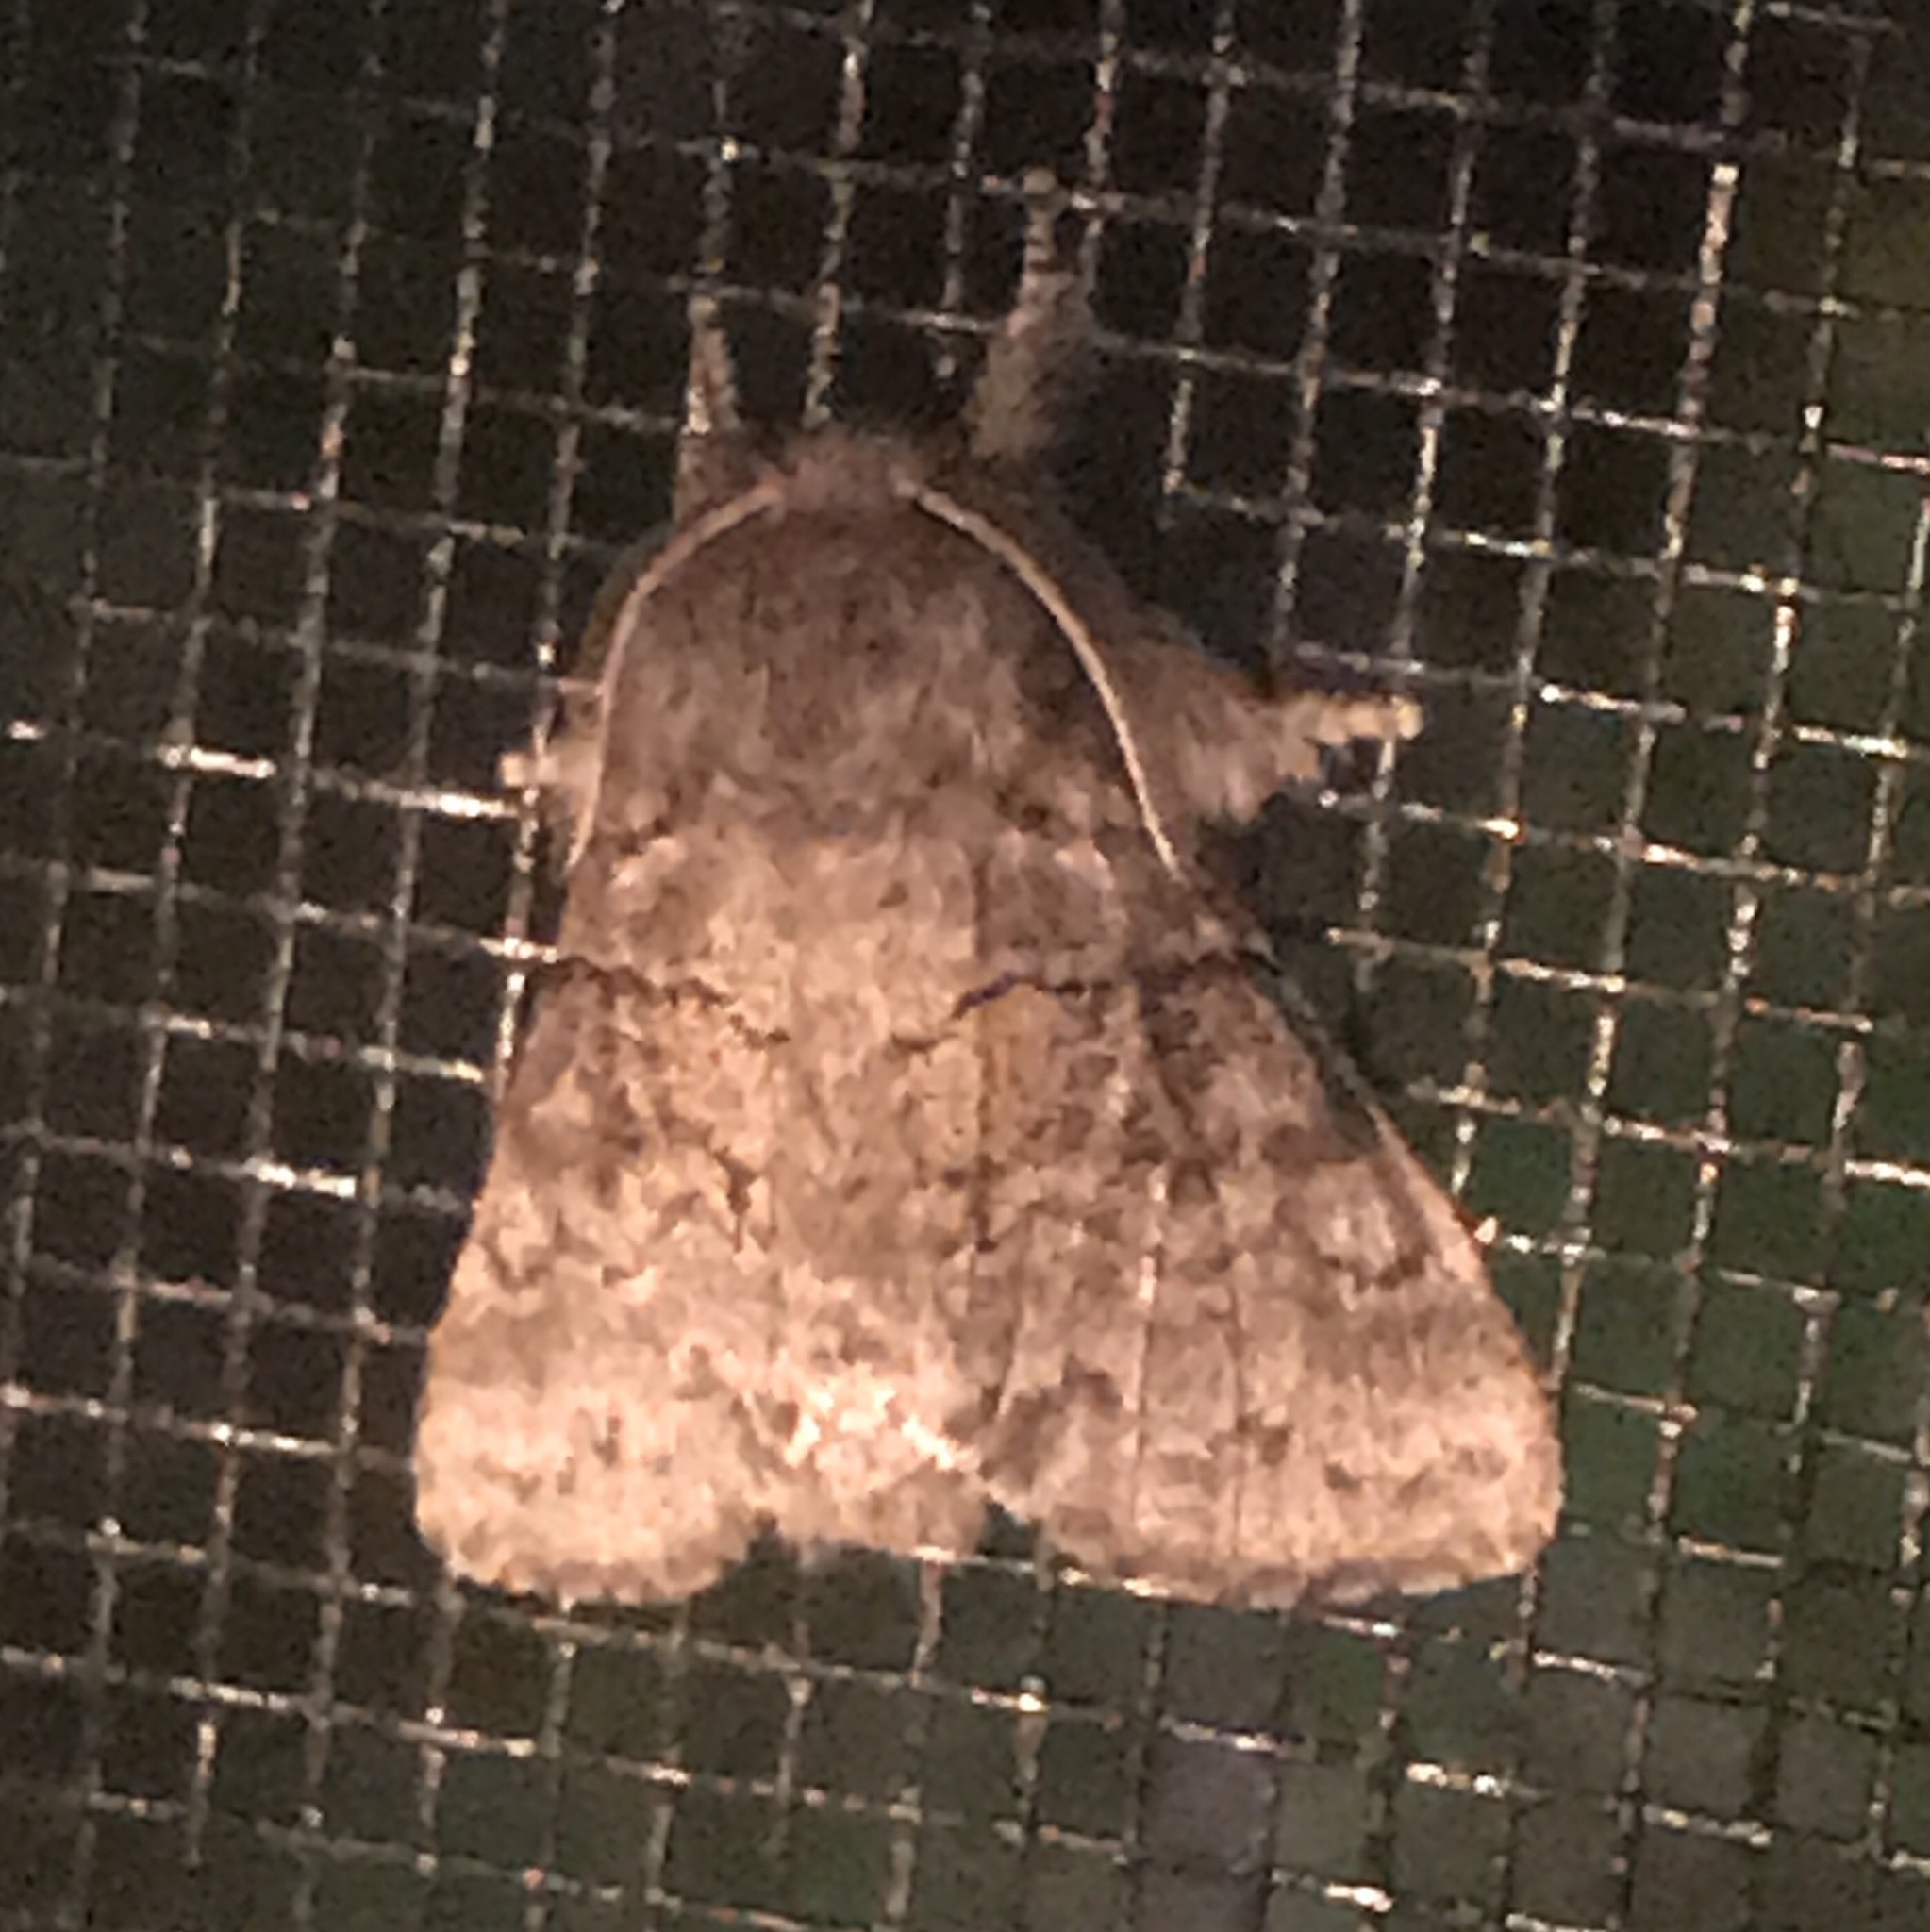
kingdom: Animalia
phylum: Arthropoda
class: Insecta
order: Lepidoptera
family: Notodontidae
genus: Gluphisia
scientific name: Gluphisia septentrionis
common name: Common gluphisia
